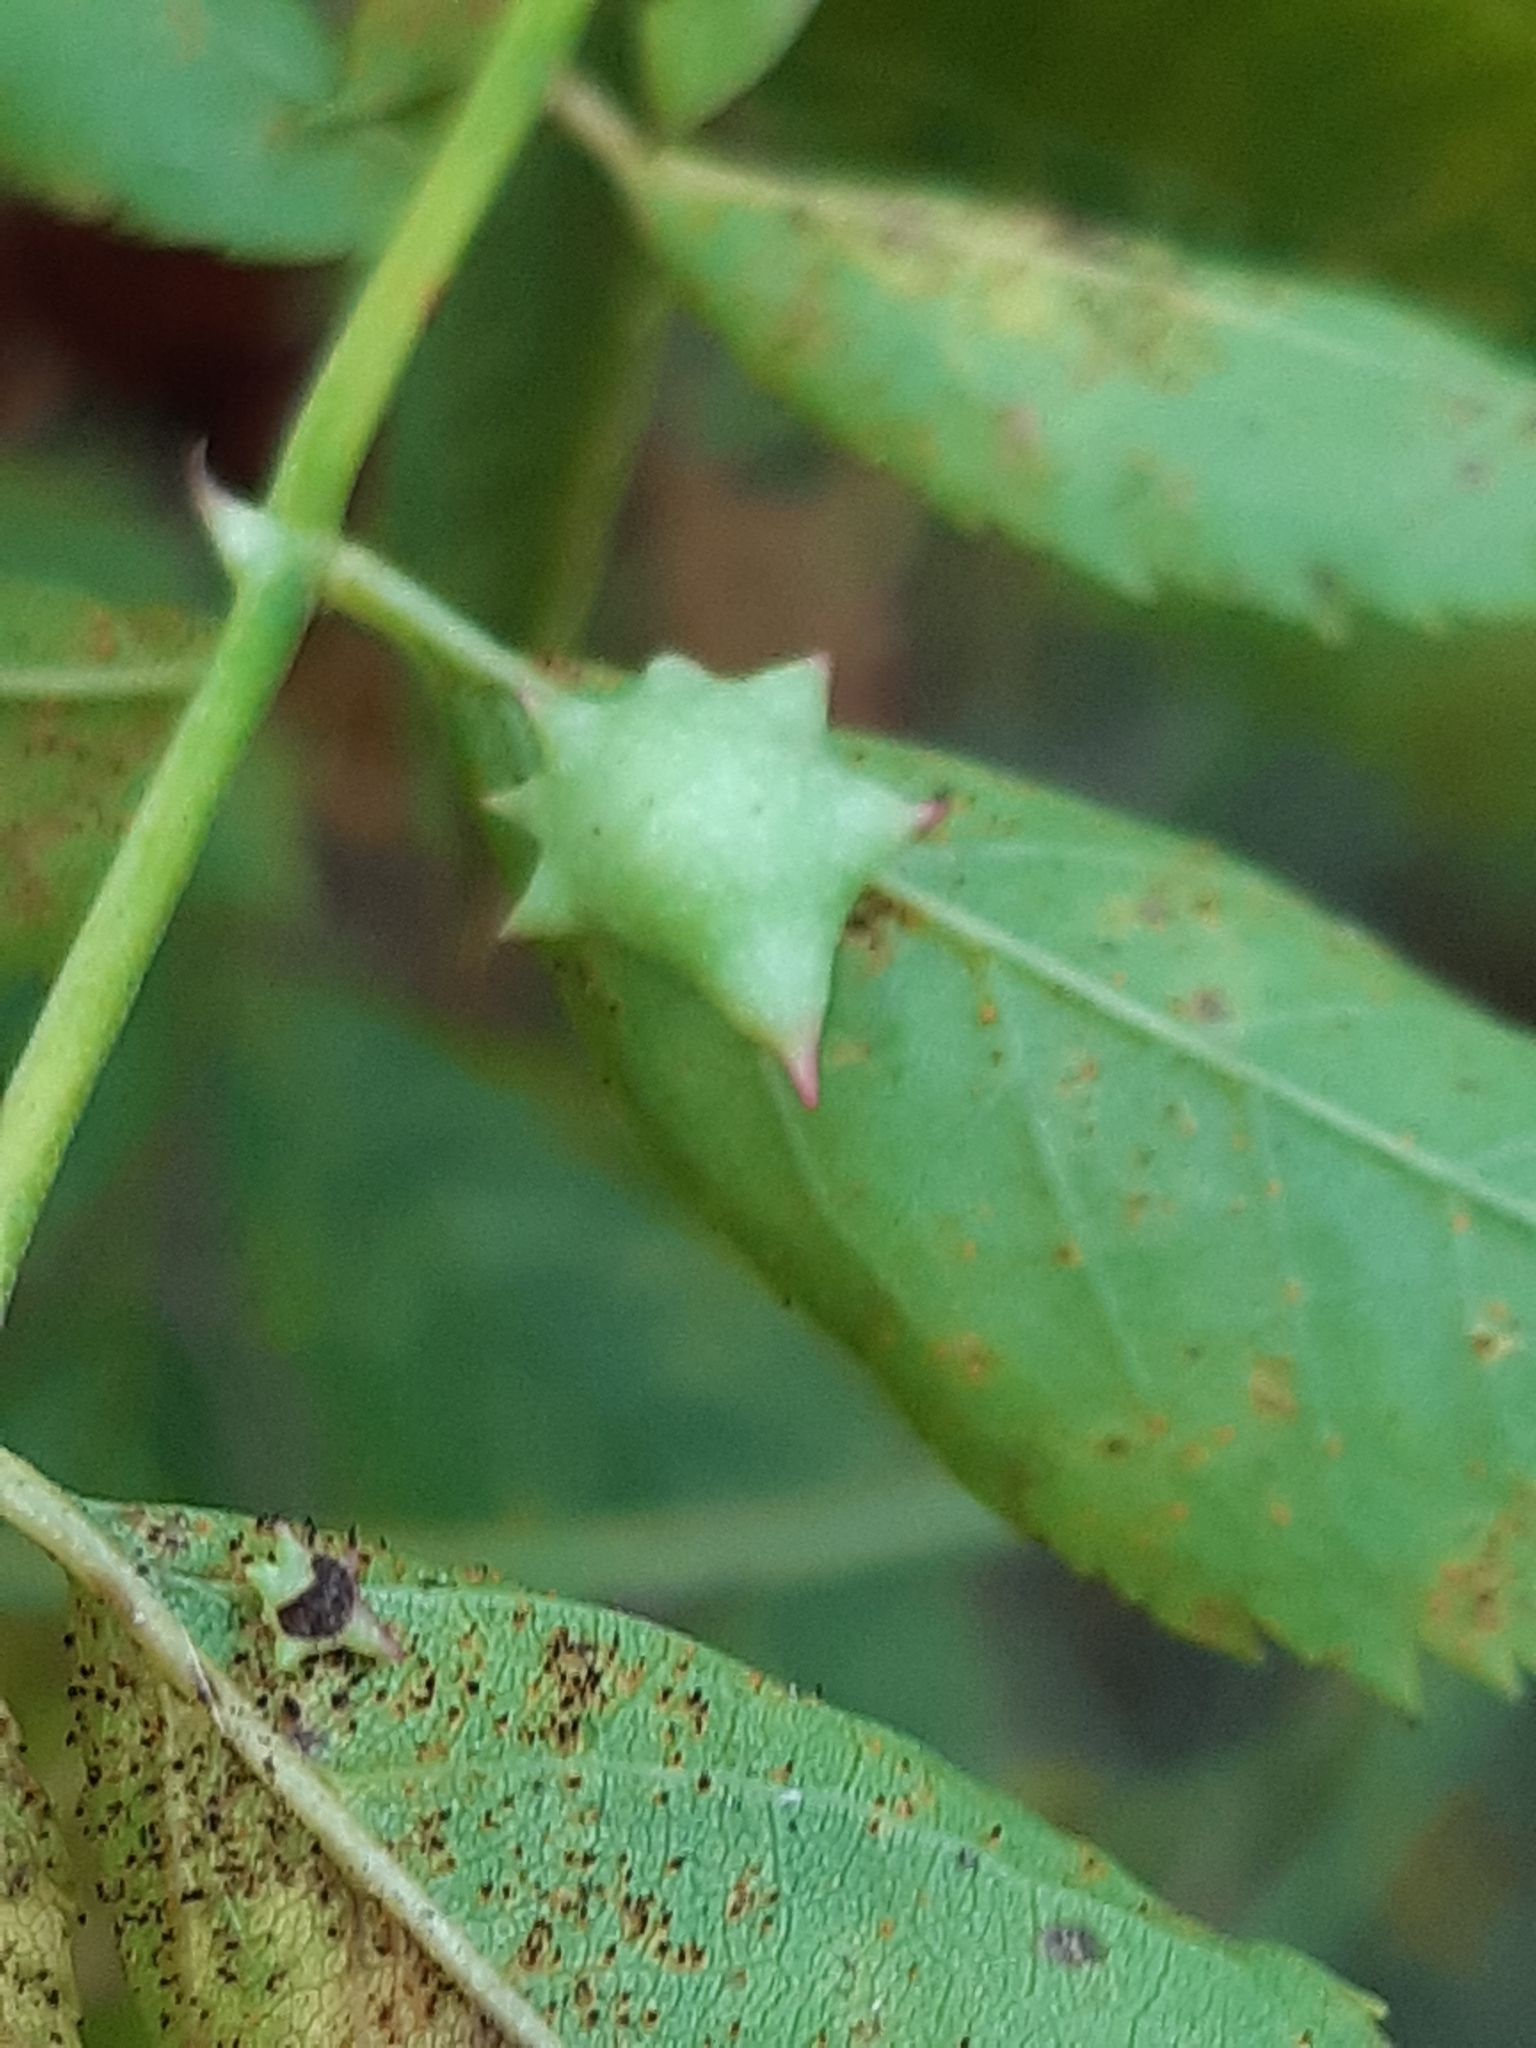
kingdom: Animalia
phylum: Arthropoda
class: Insecta
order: Hymenoptera
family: Cynipidae
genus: Diplolepis
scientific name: Diplolepis nervosa
